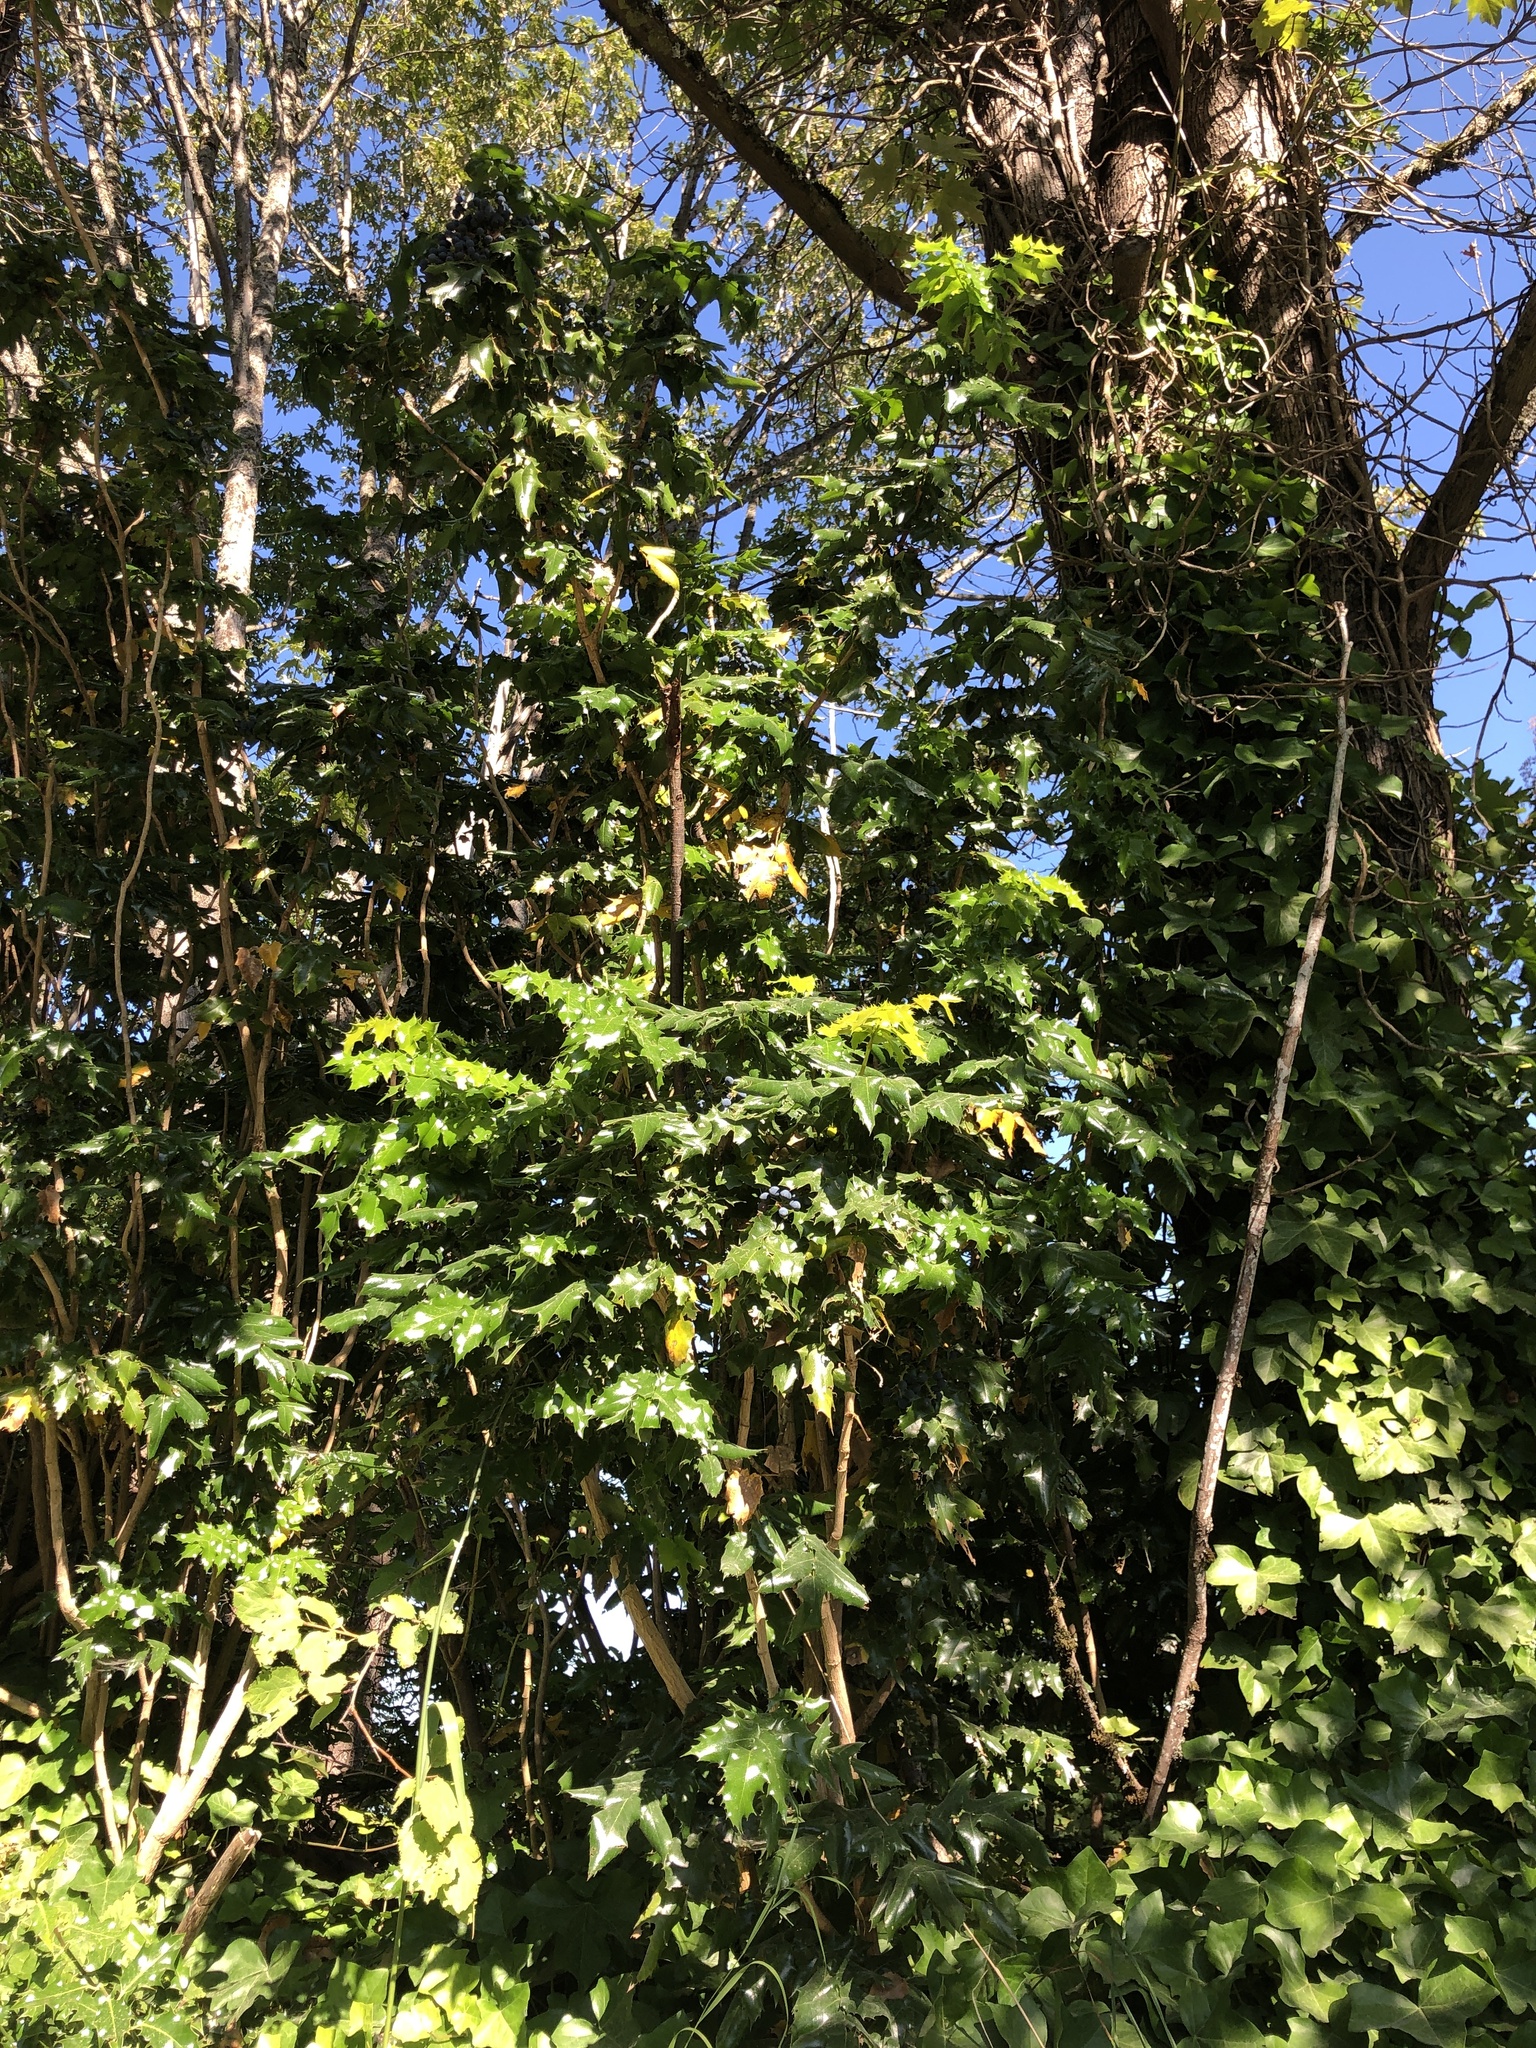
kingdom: Plantae
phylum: Tracheophyta
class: Magnoliopsida
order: Ranunculales
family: Berberidaceae
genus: Mahonia
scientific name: Mahonia aquifolium
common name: Oregon-grape
